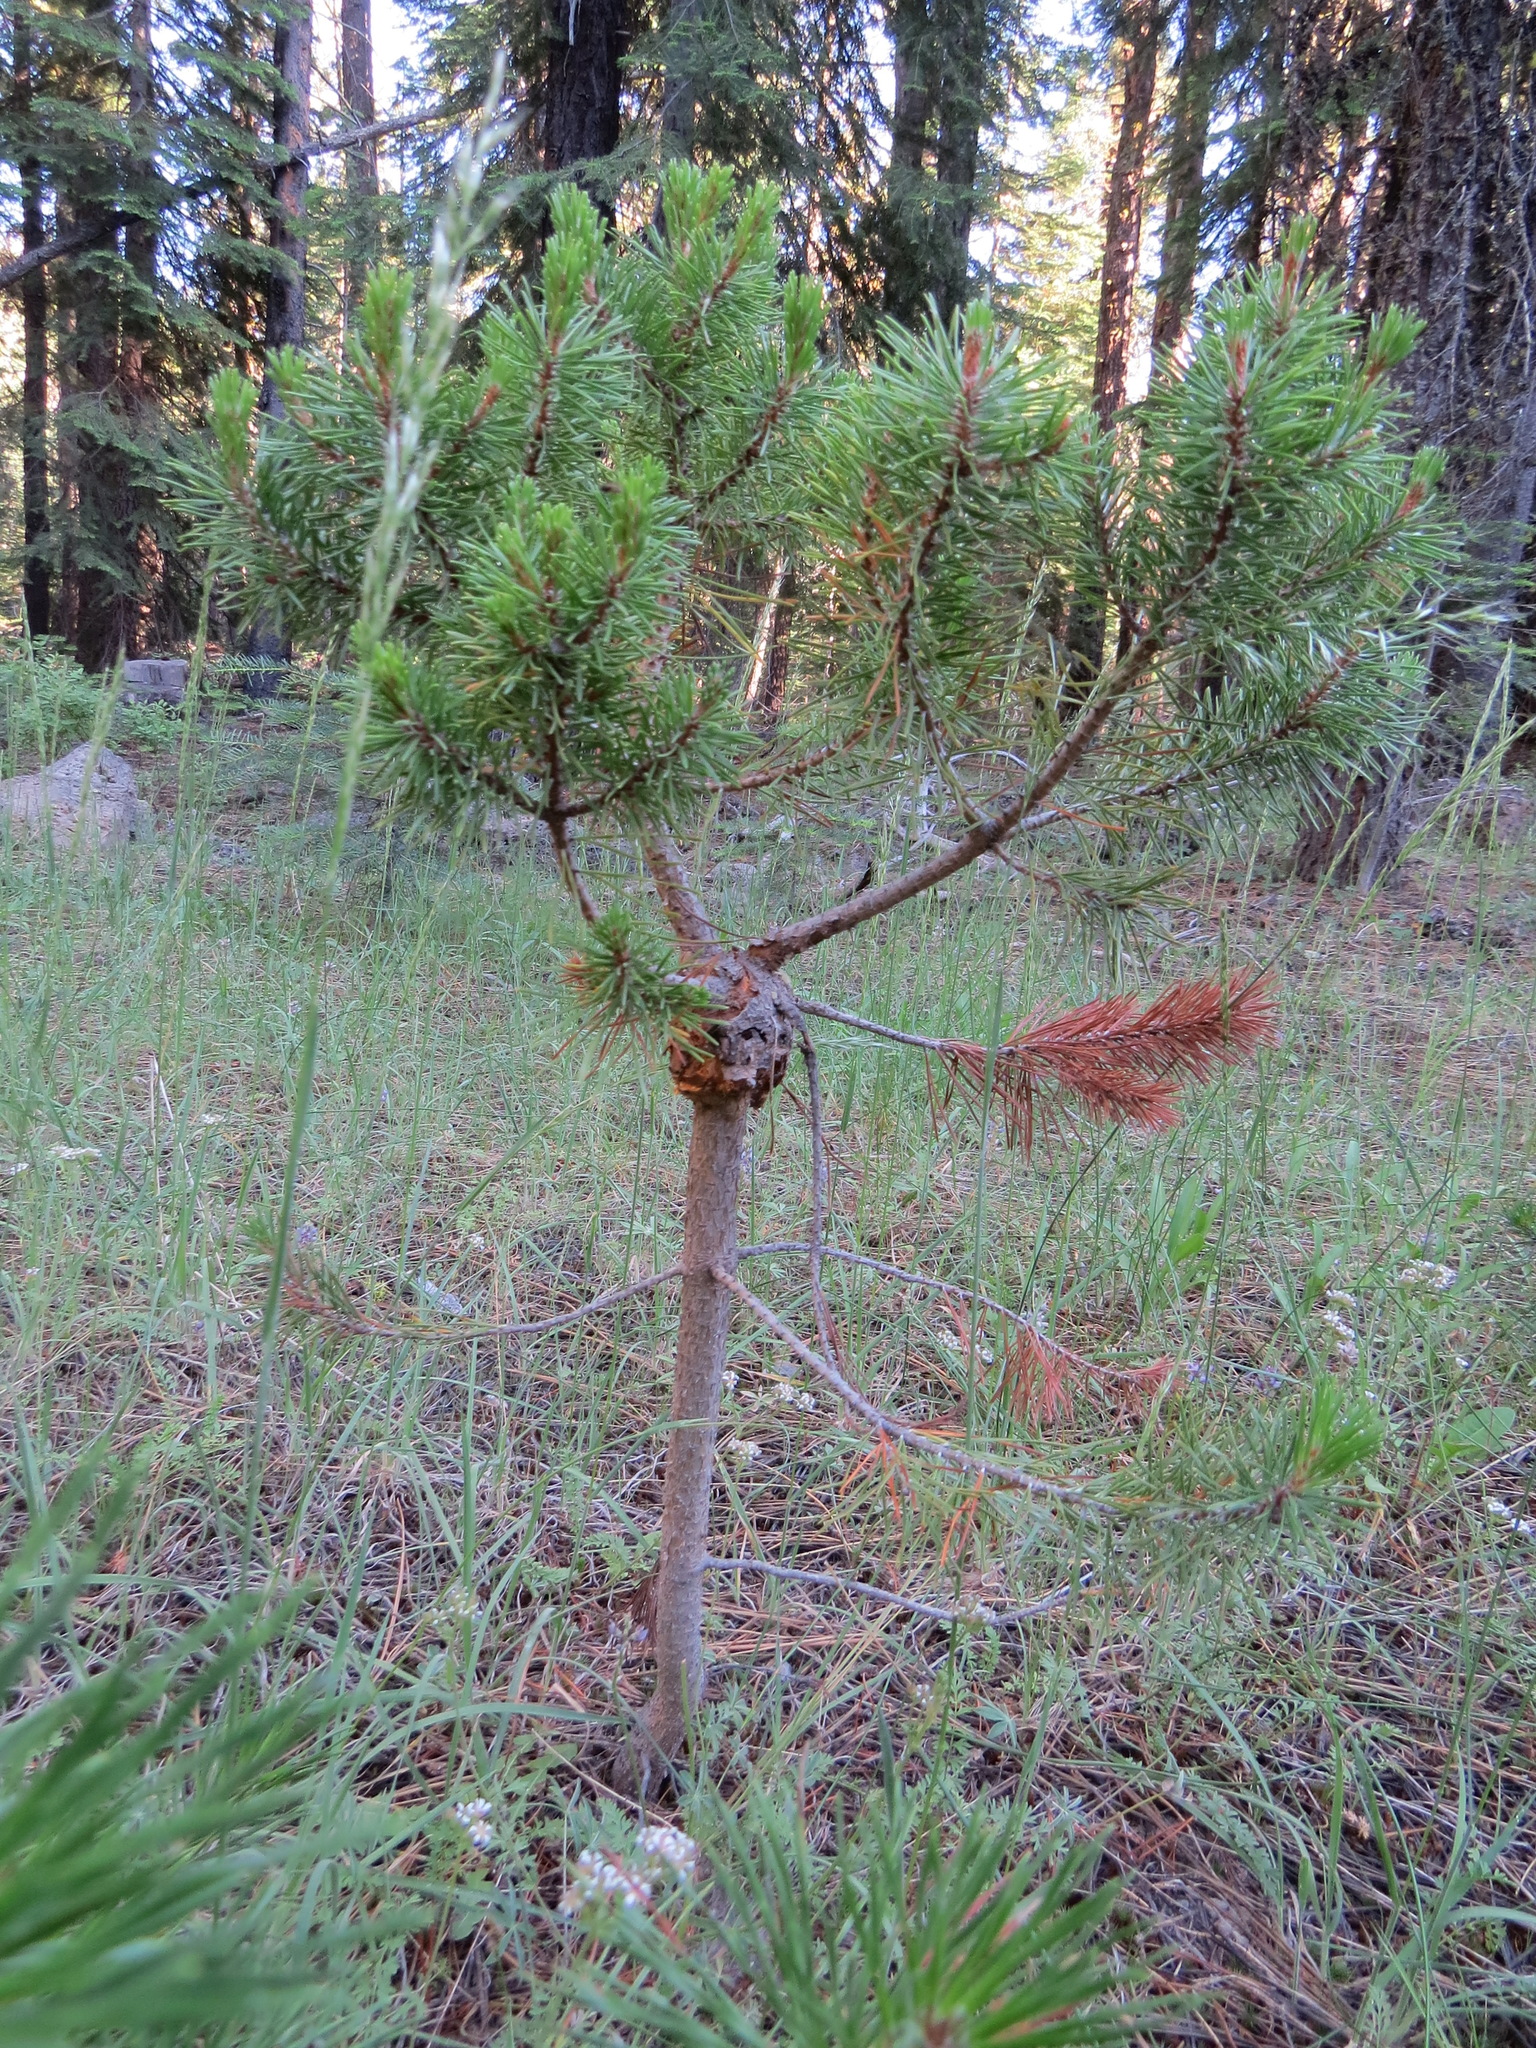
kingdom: Fungi
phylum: Basidiomycota
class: Pucciniomycetes
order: Pucciniales
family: Cronartiaceae
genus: Cronartium
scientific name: Cronartium harknessii
